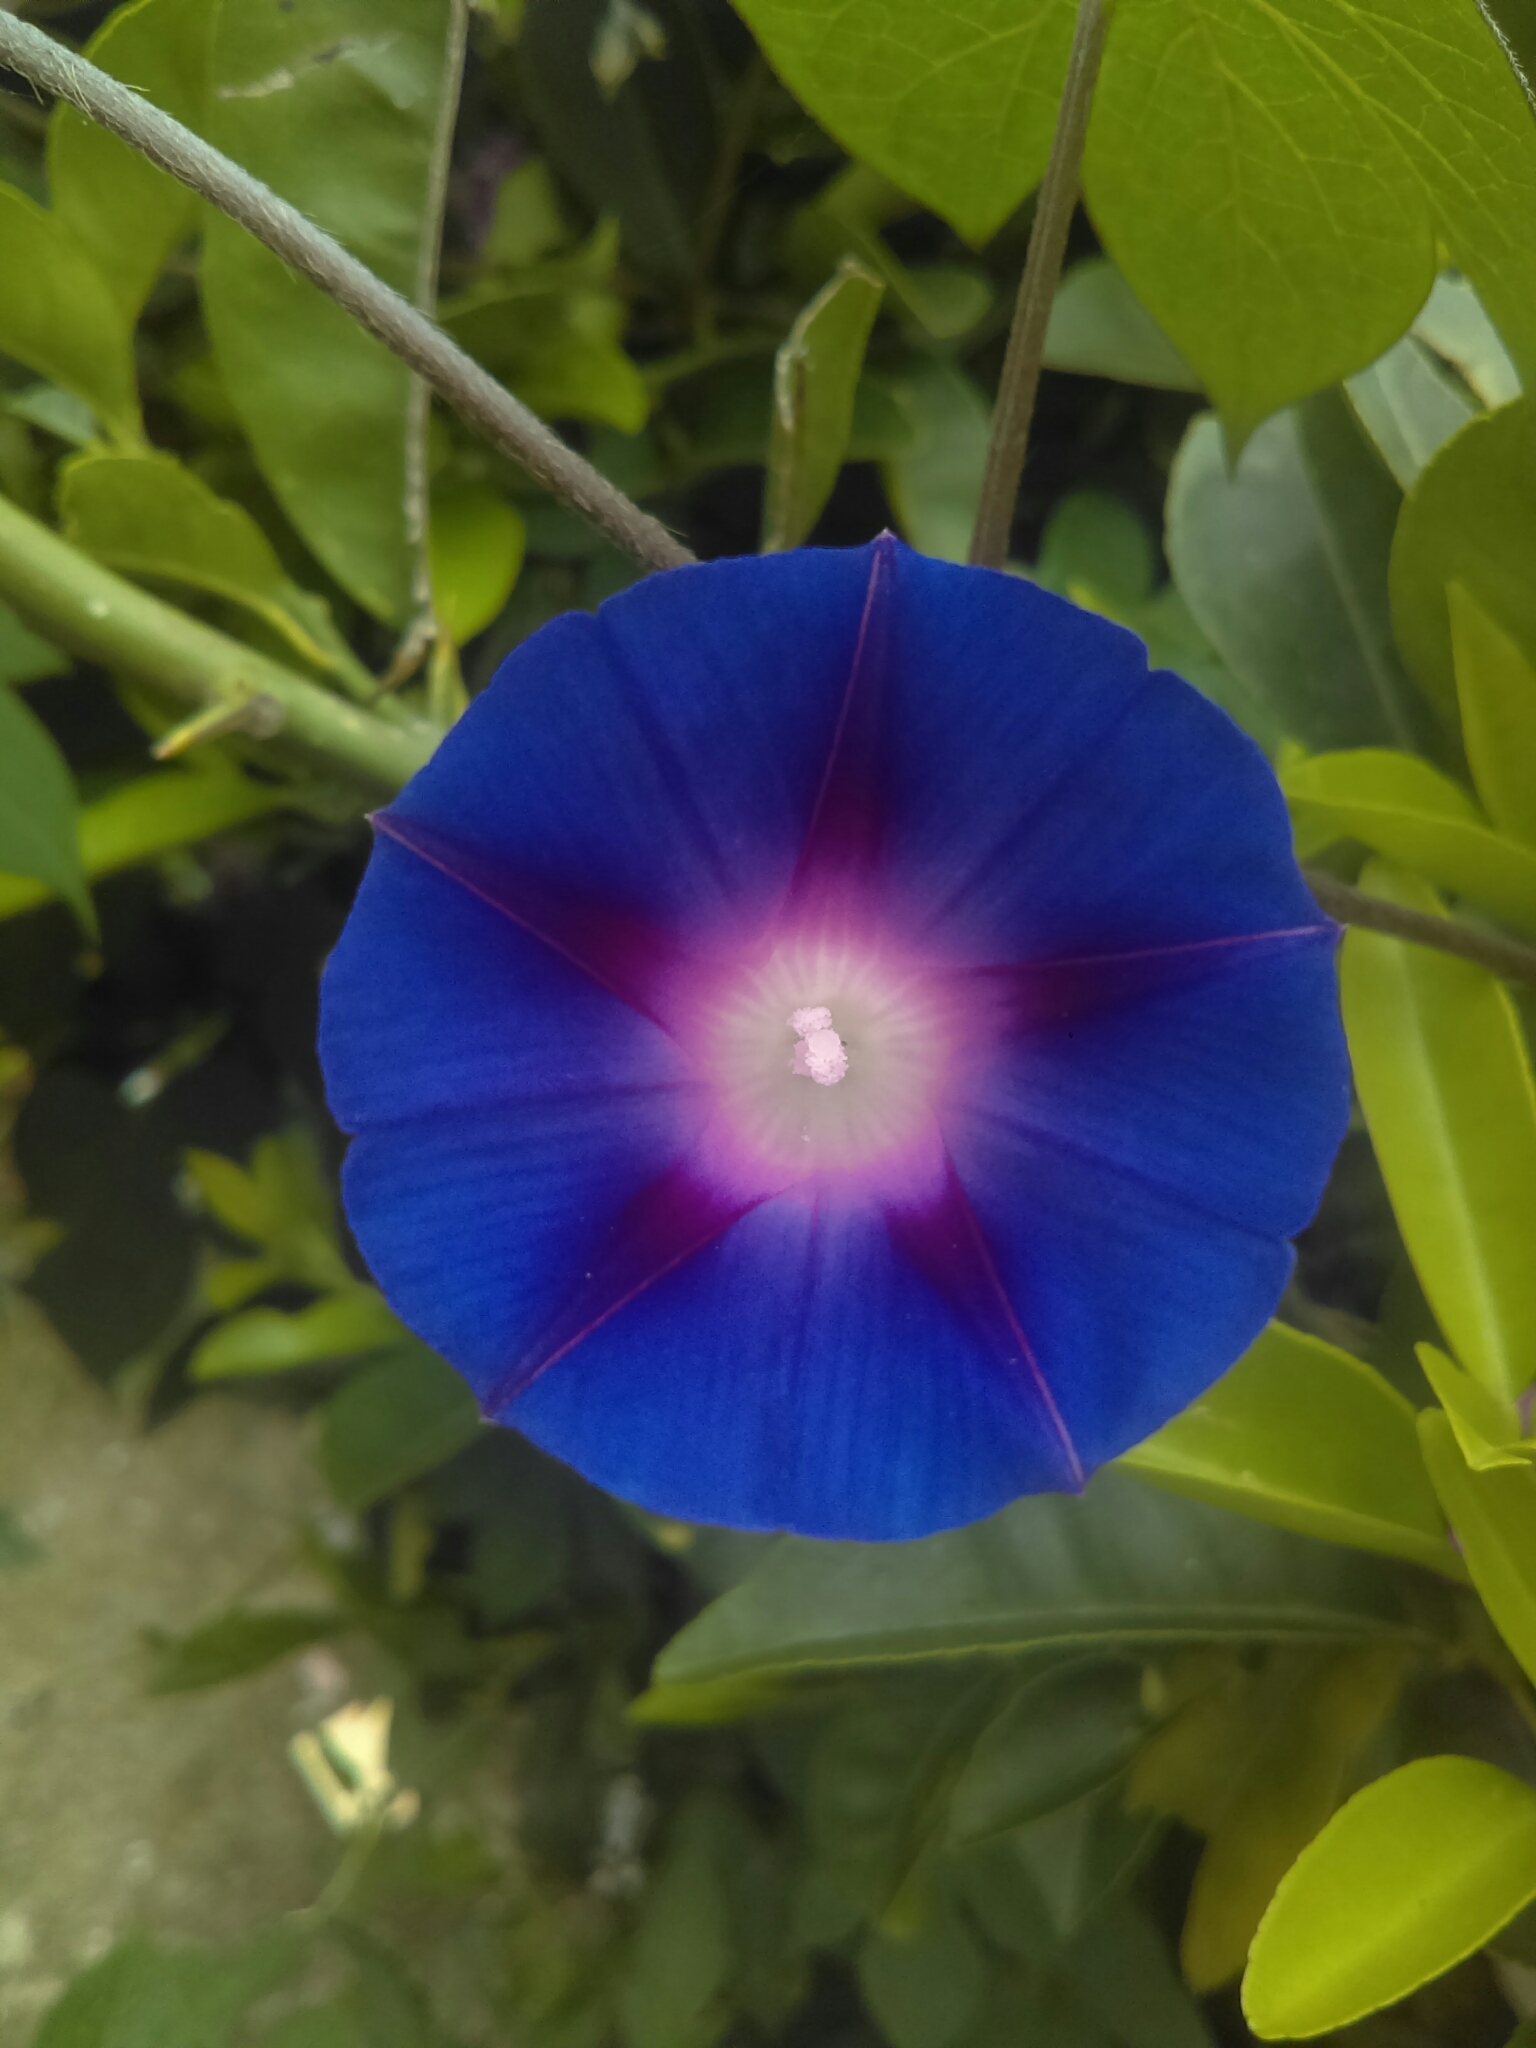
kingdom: Plantae
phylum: Tracheophyta
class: Magnoliopsida
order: Solanales
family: Convolvulaceae
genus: Ipomoea
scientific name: Ipomoea purpurea
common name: Common morning-glory
